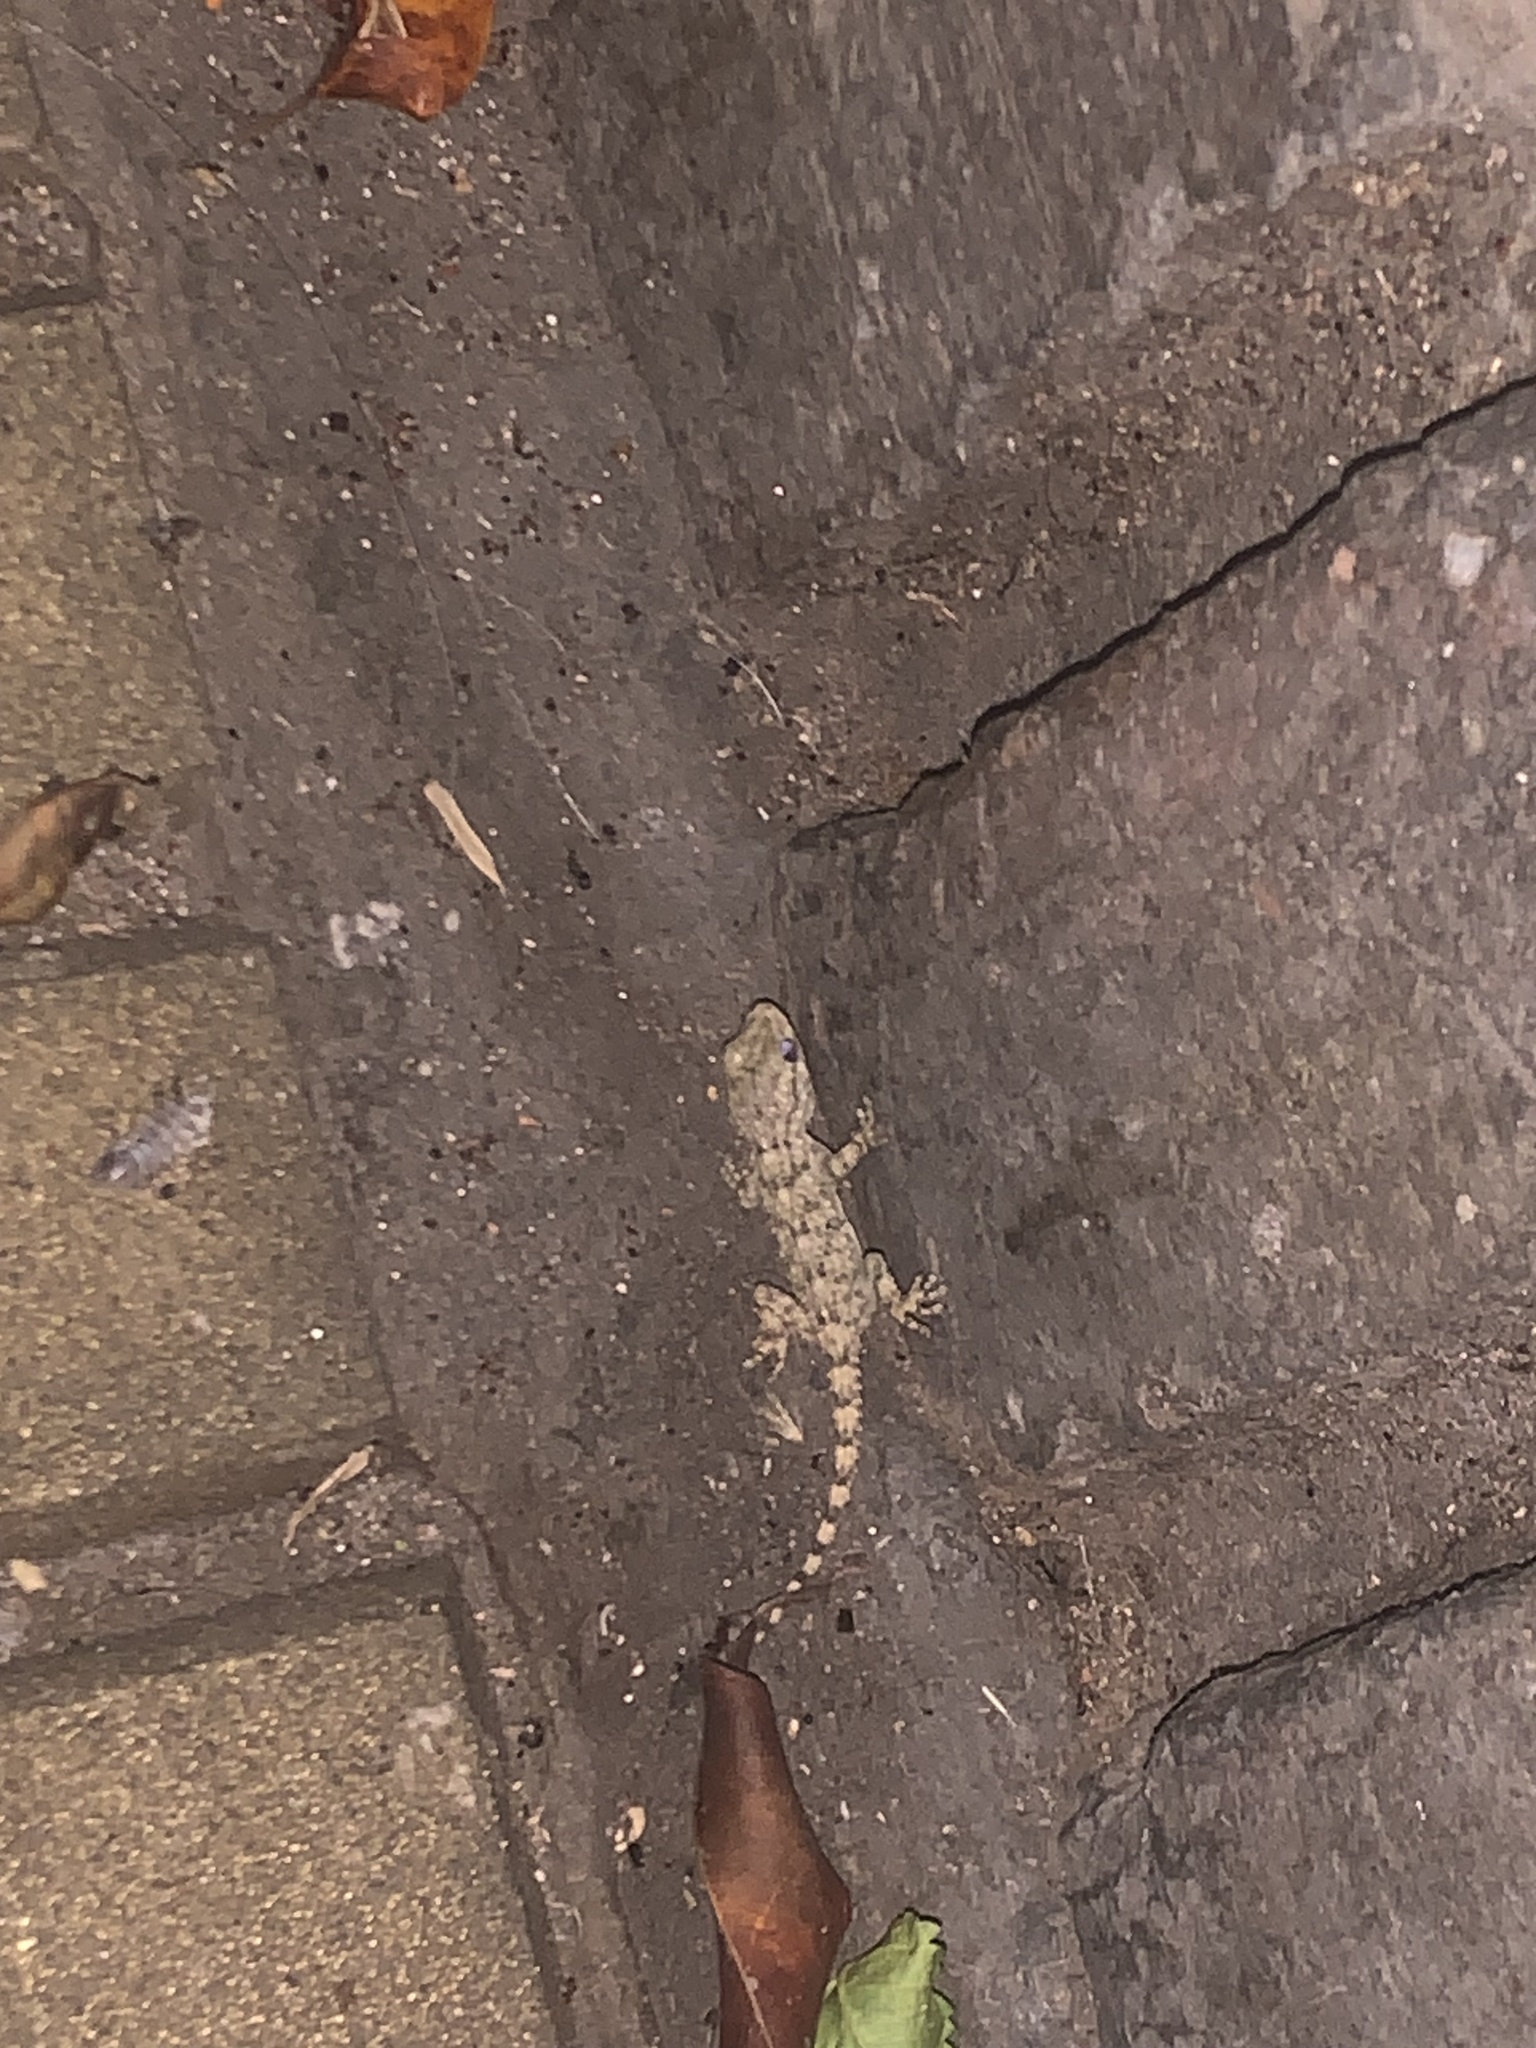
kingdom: Animalia
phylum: Chordata
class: Squamata
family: Phyllodactylidae
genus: Tarentola
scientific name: Tarentola mauritanica
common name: Moorish gecko
